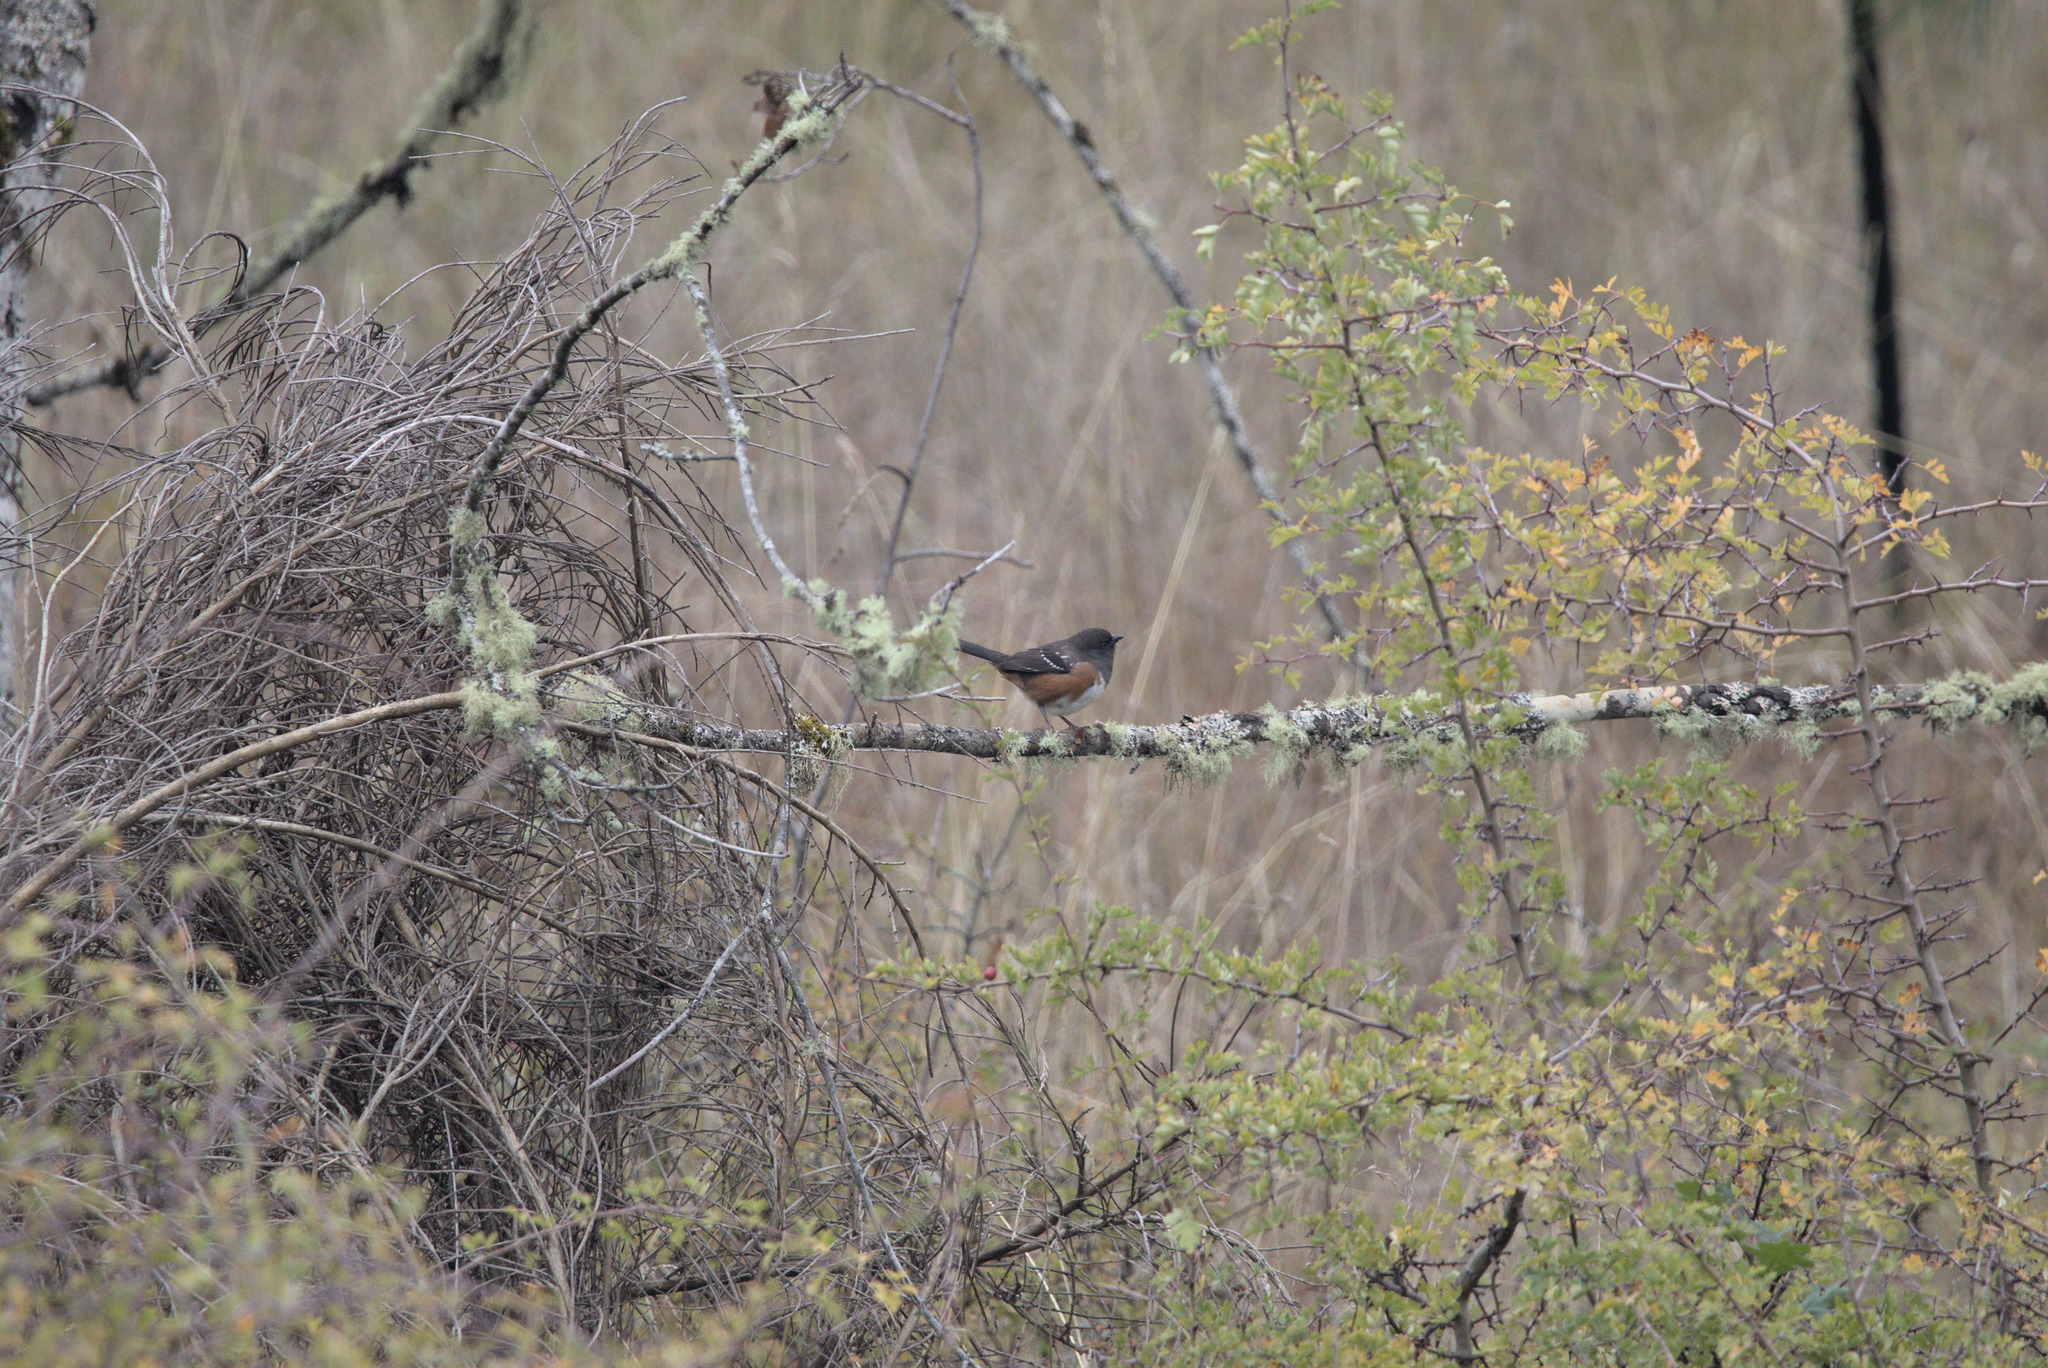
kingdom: Animalia
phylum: Chordata
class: Aves
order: Passeriformes
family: Passerellidae
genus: Pipilo
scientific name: Pipilo maculatus
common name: Spotted towhee
